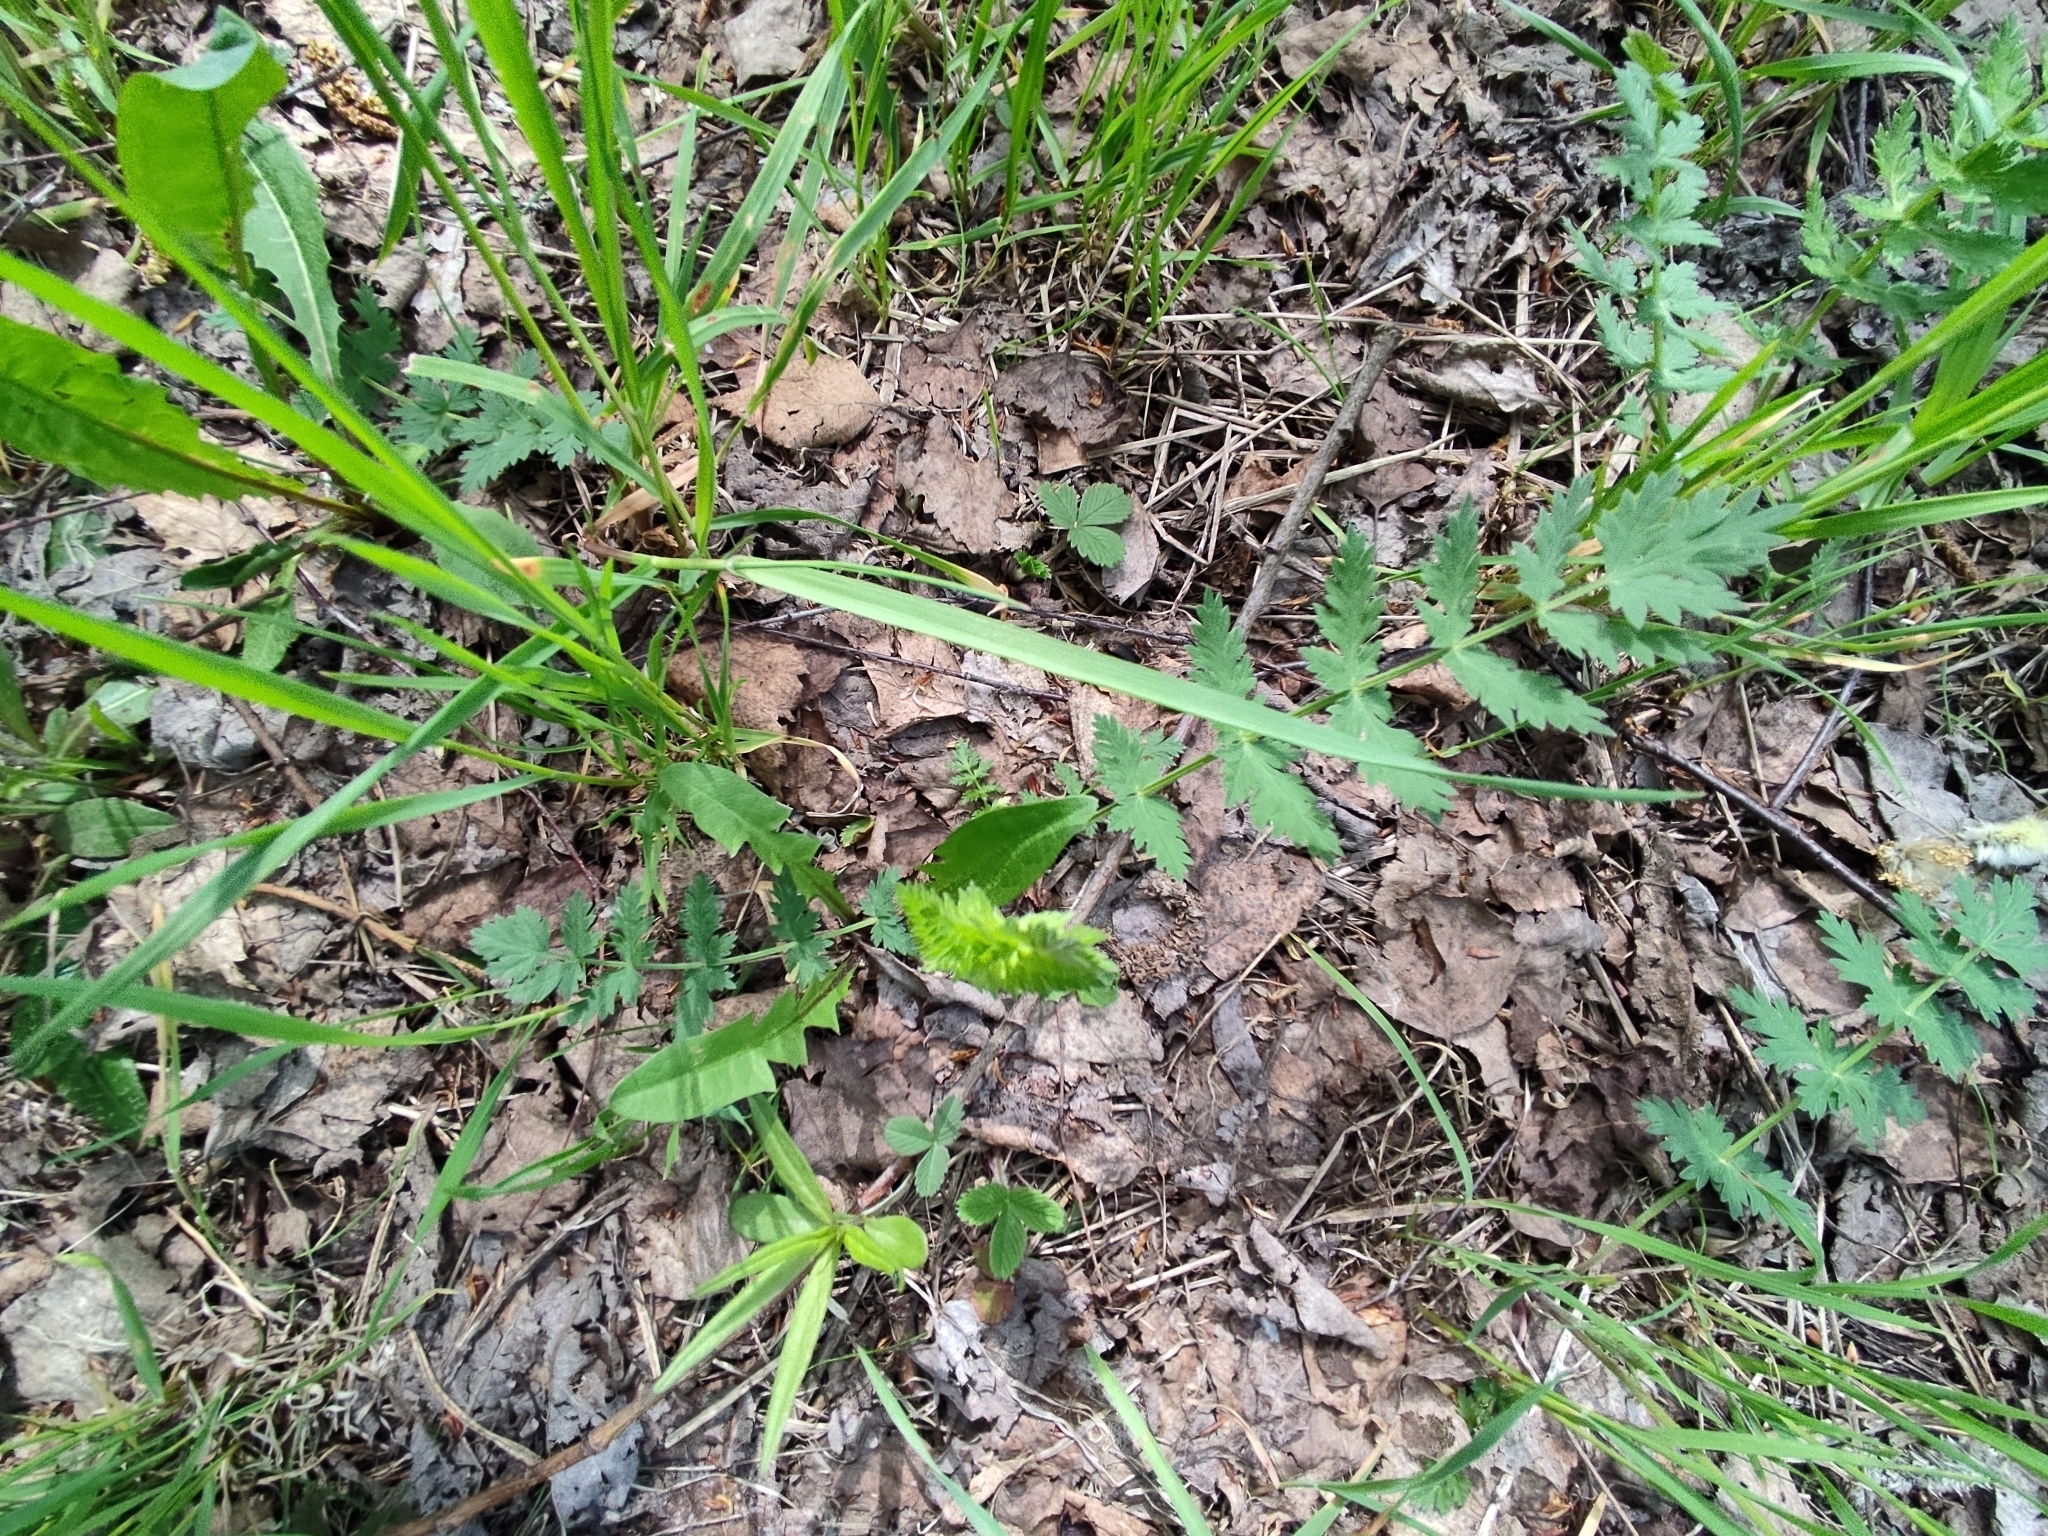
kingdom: Plantae
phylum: Tracheophyta
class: Magnoliopsida
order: Apiales
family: Apiaceae
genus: Seseli
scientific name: Seseli libanotis
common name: Mooncarrot
